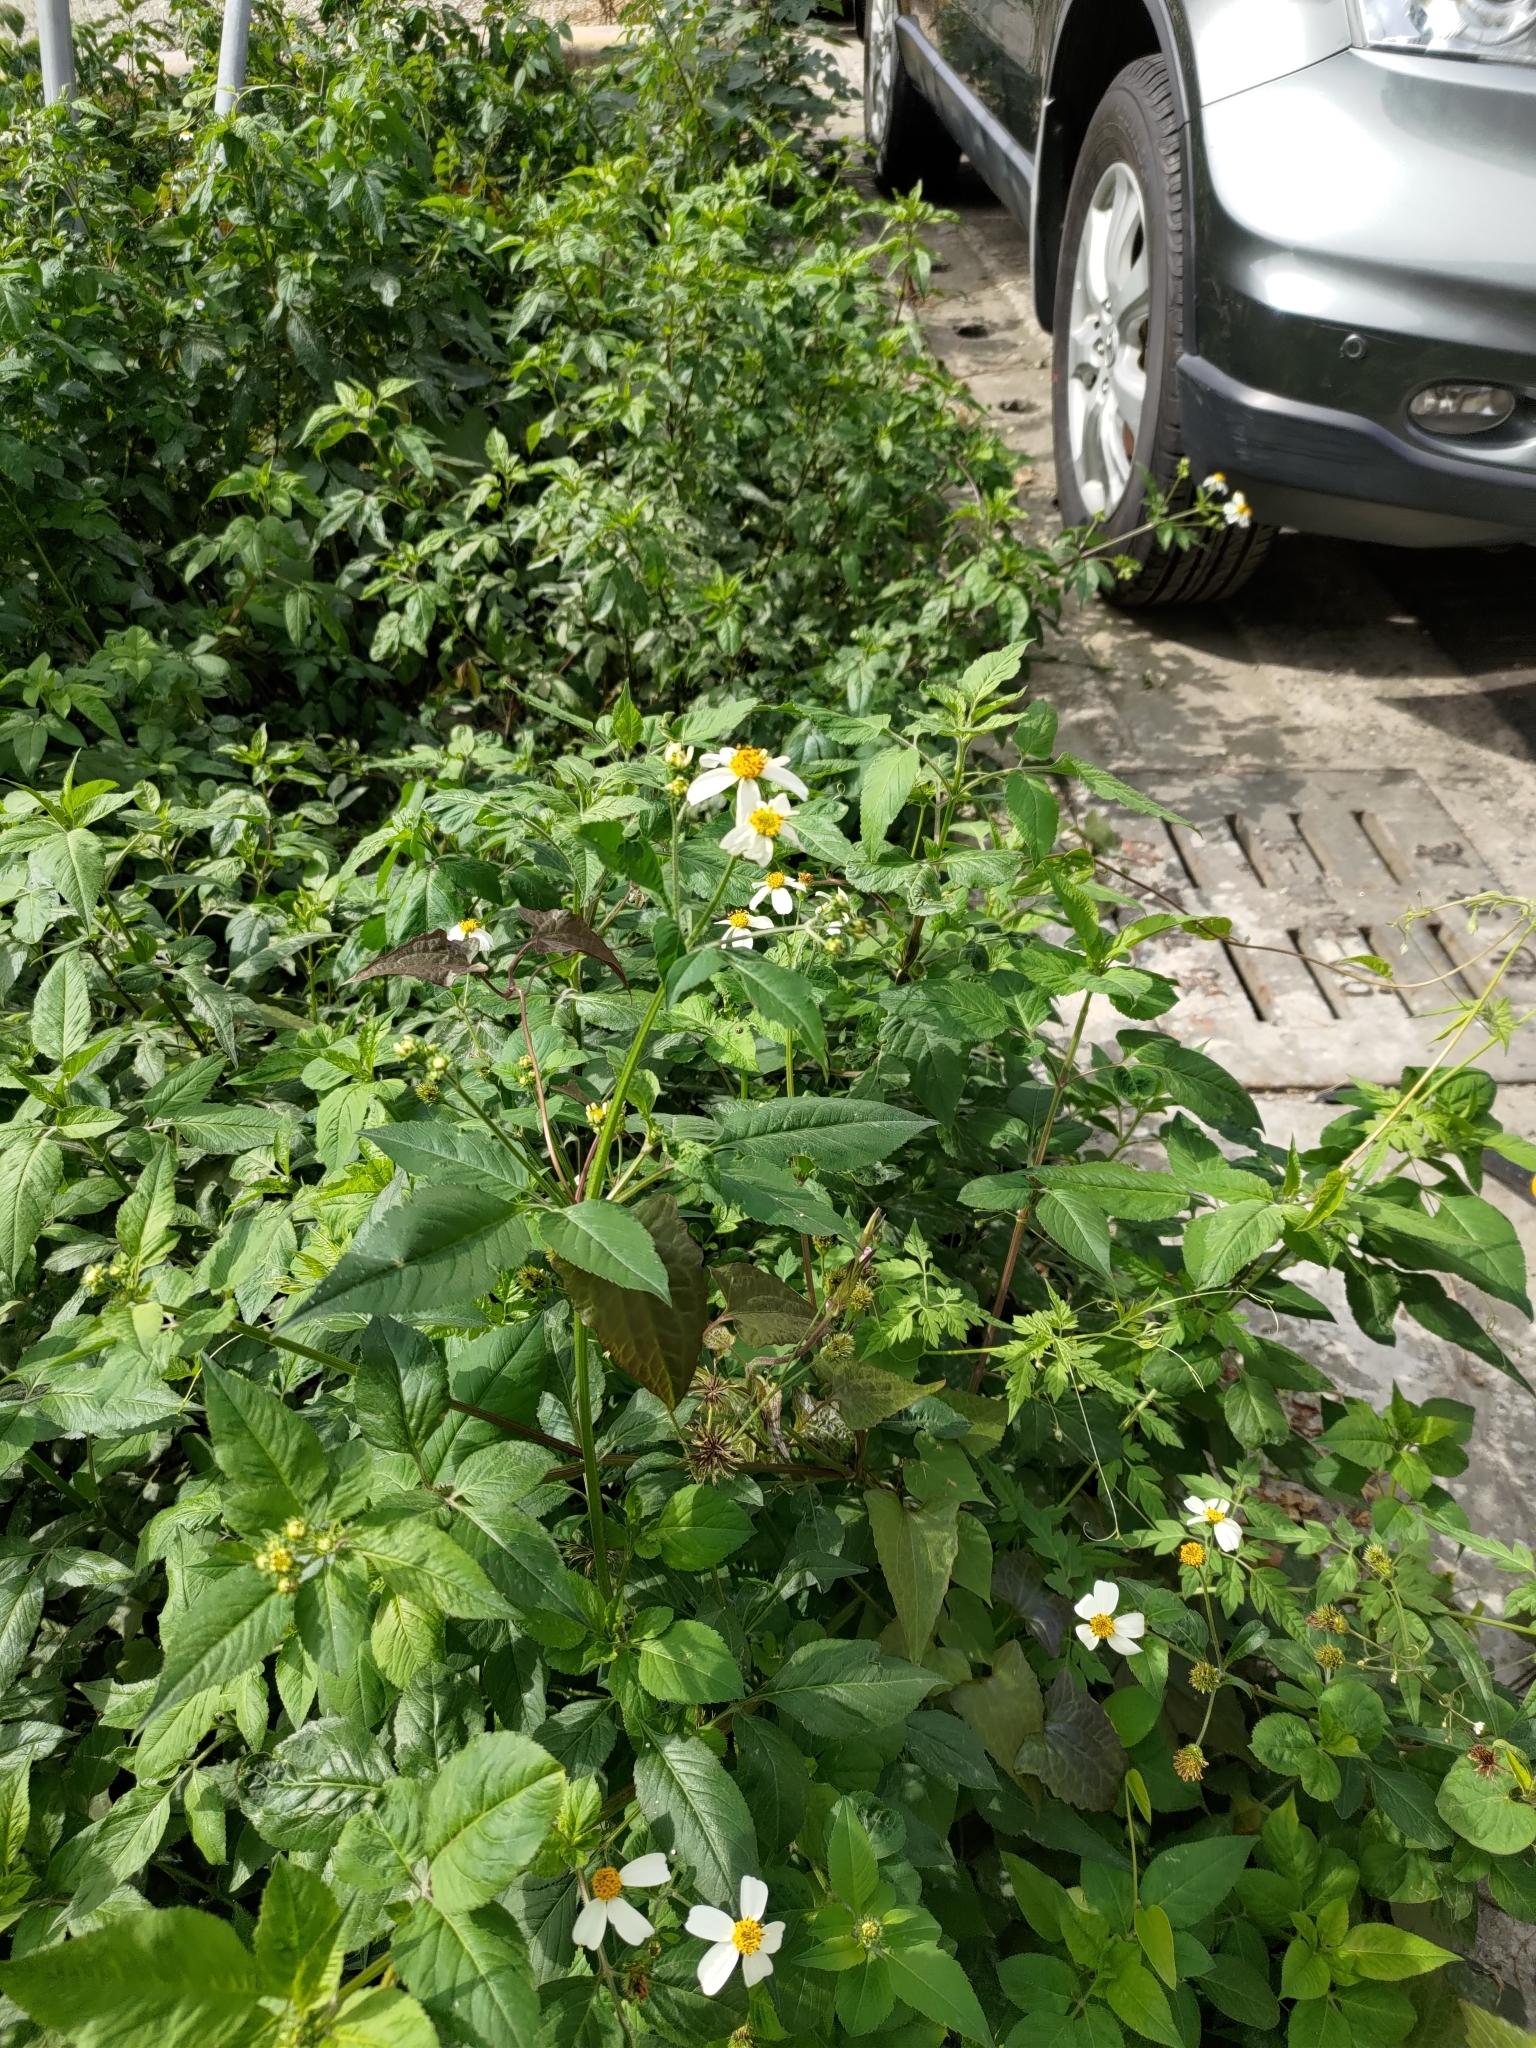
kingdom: Plantae
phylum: Tracheophyta
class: Magnoliopsida
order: Asterales
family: Asteraceae
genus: Bidens
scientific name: Bidens alba
